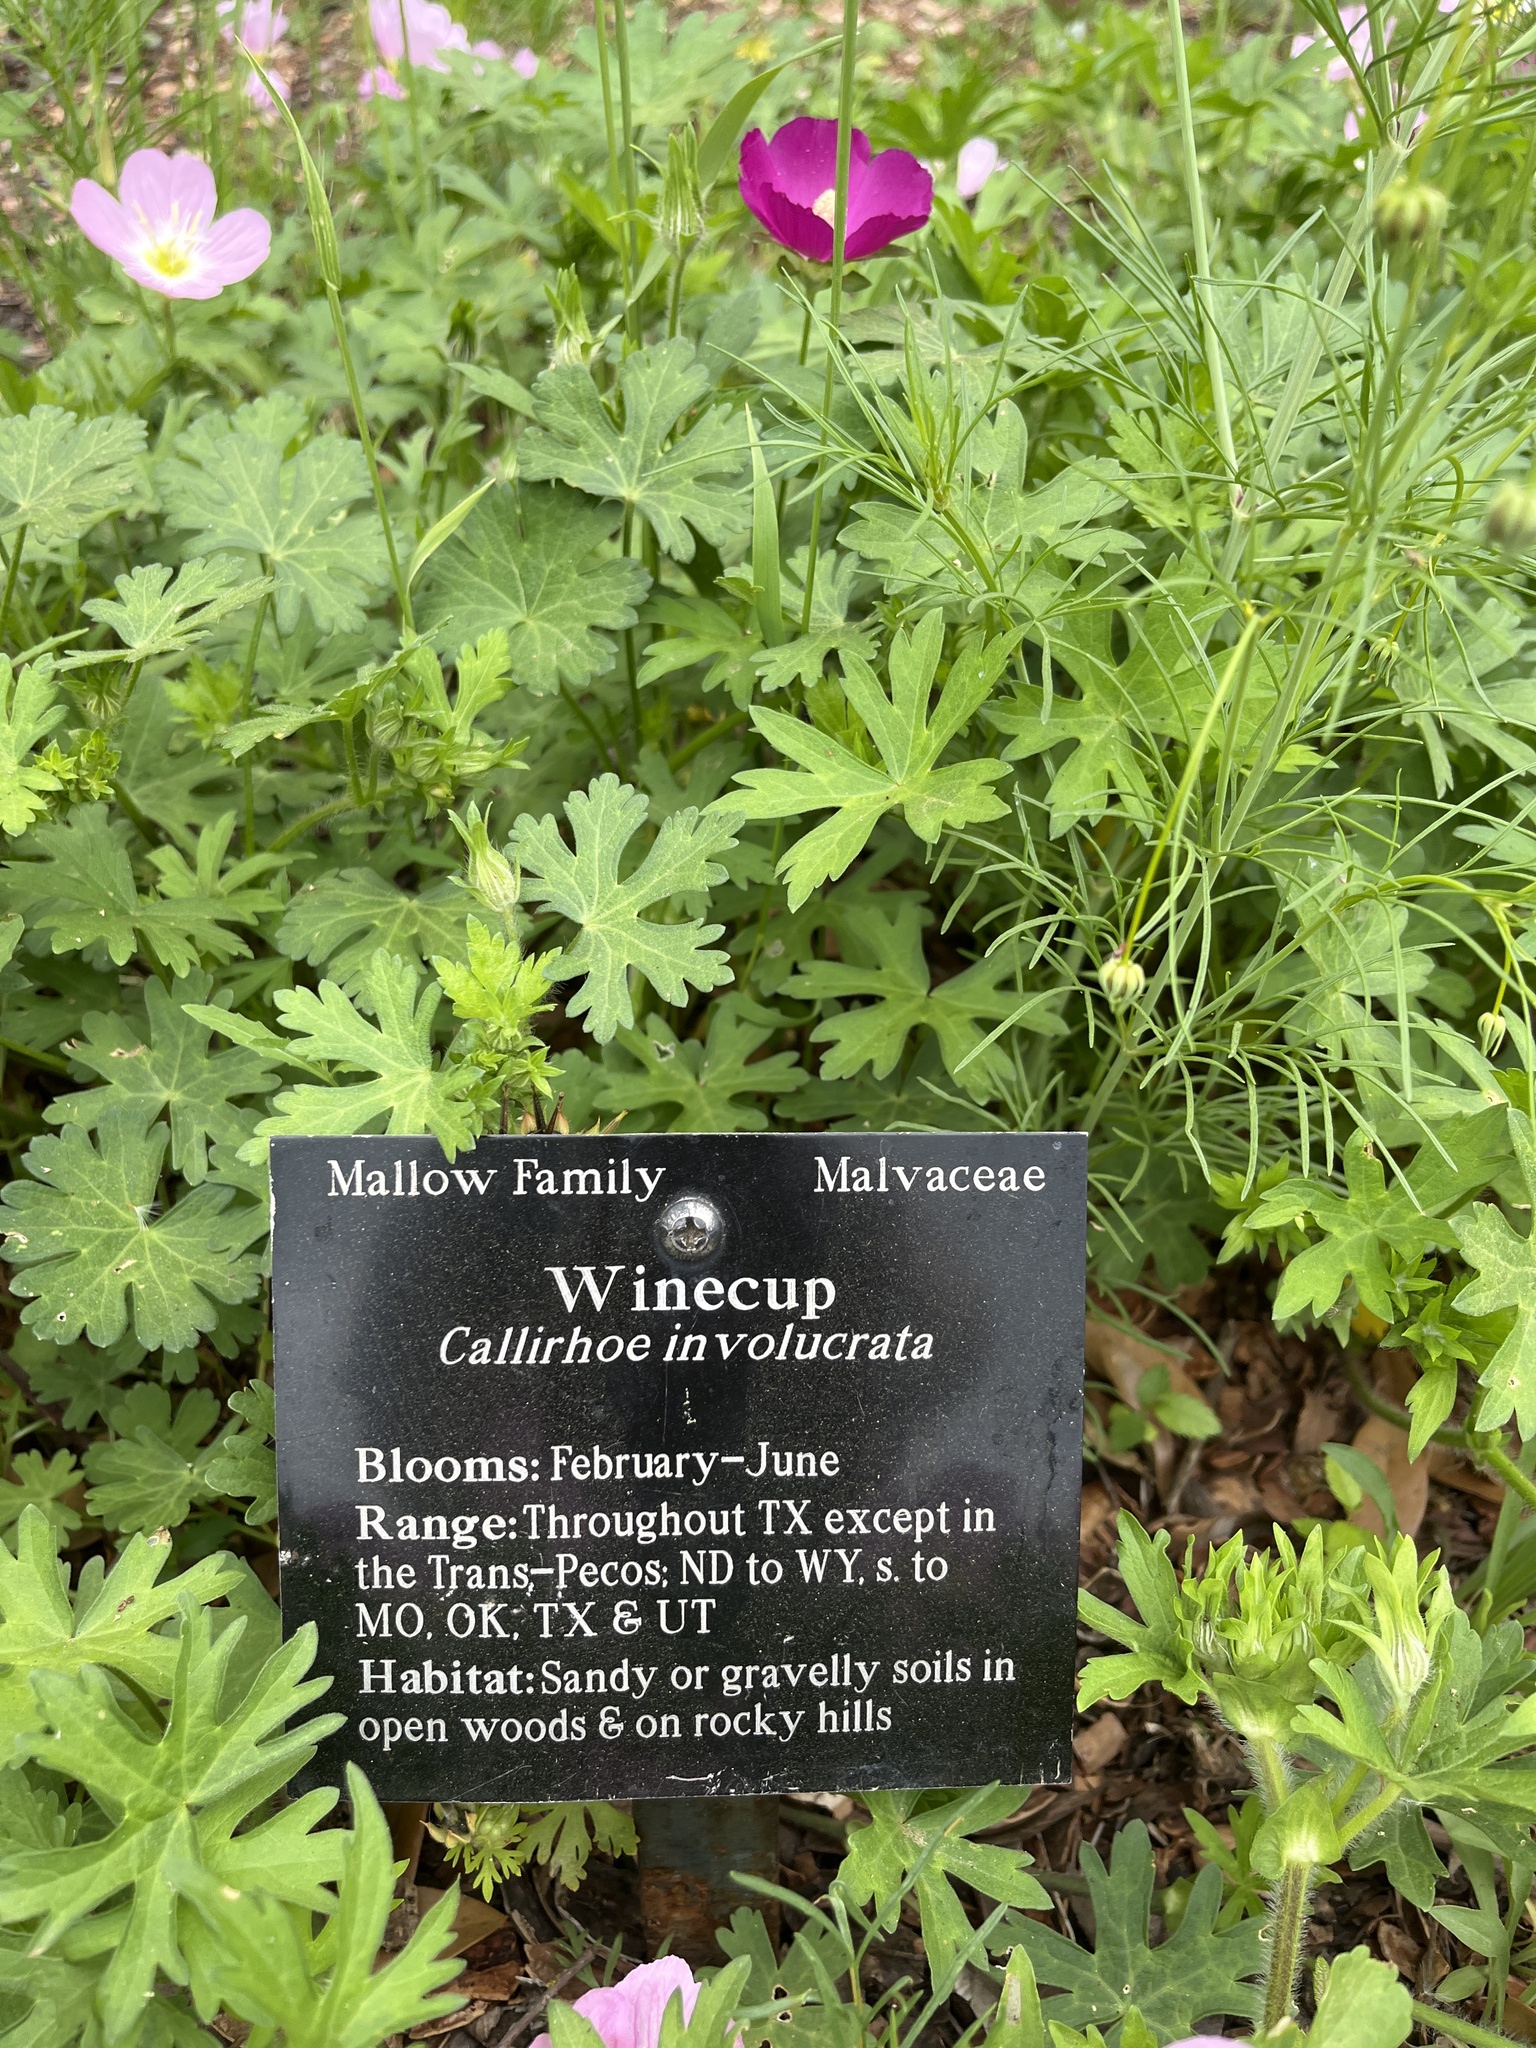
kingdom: Plantae
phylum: Tracheophyta
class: Magnoliopsida
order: Malvales
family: Malvaceae
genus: Callirhoe
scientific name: Callirhoe involucrata
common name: Purple poppy-mallow
